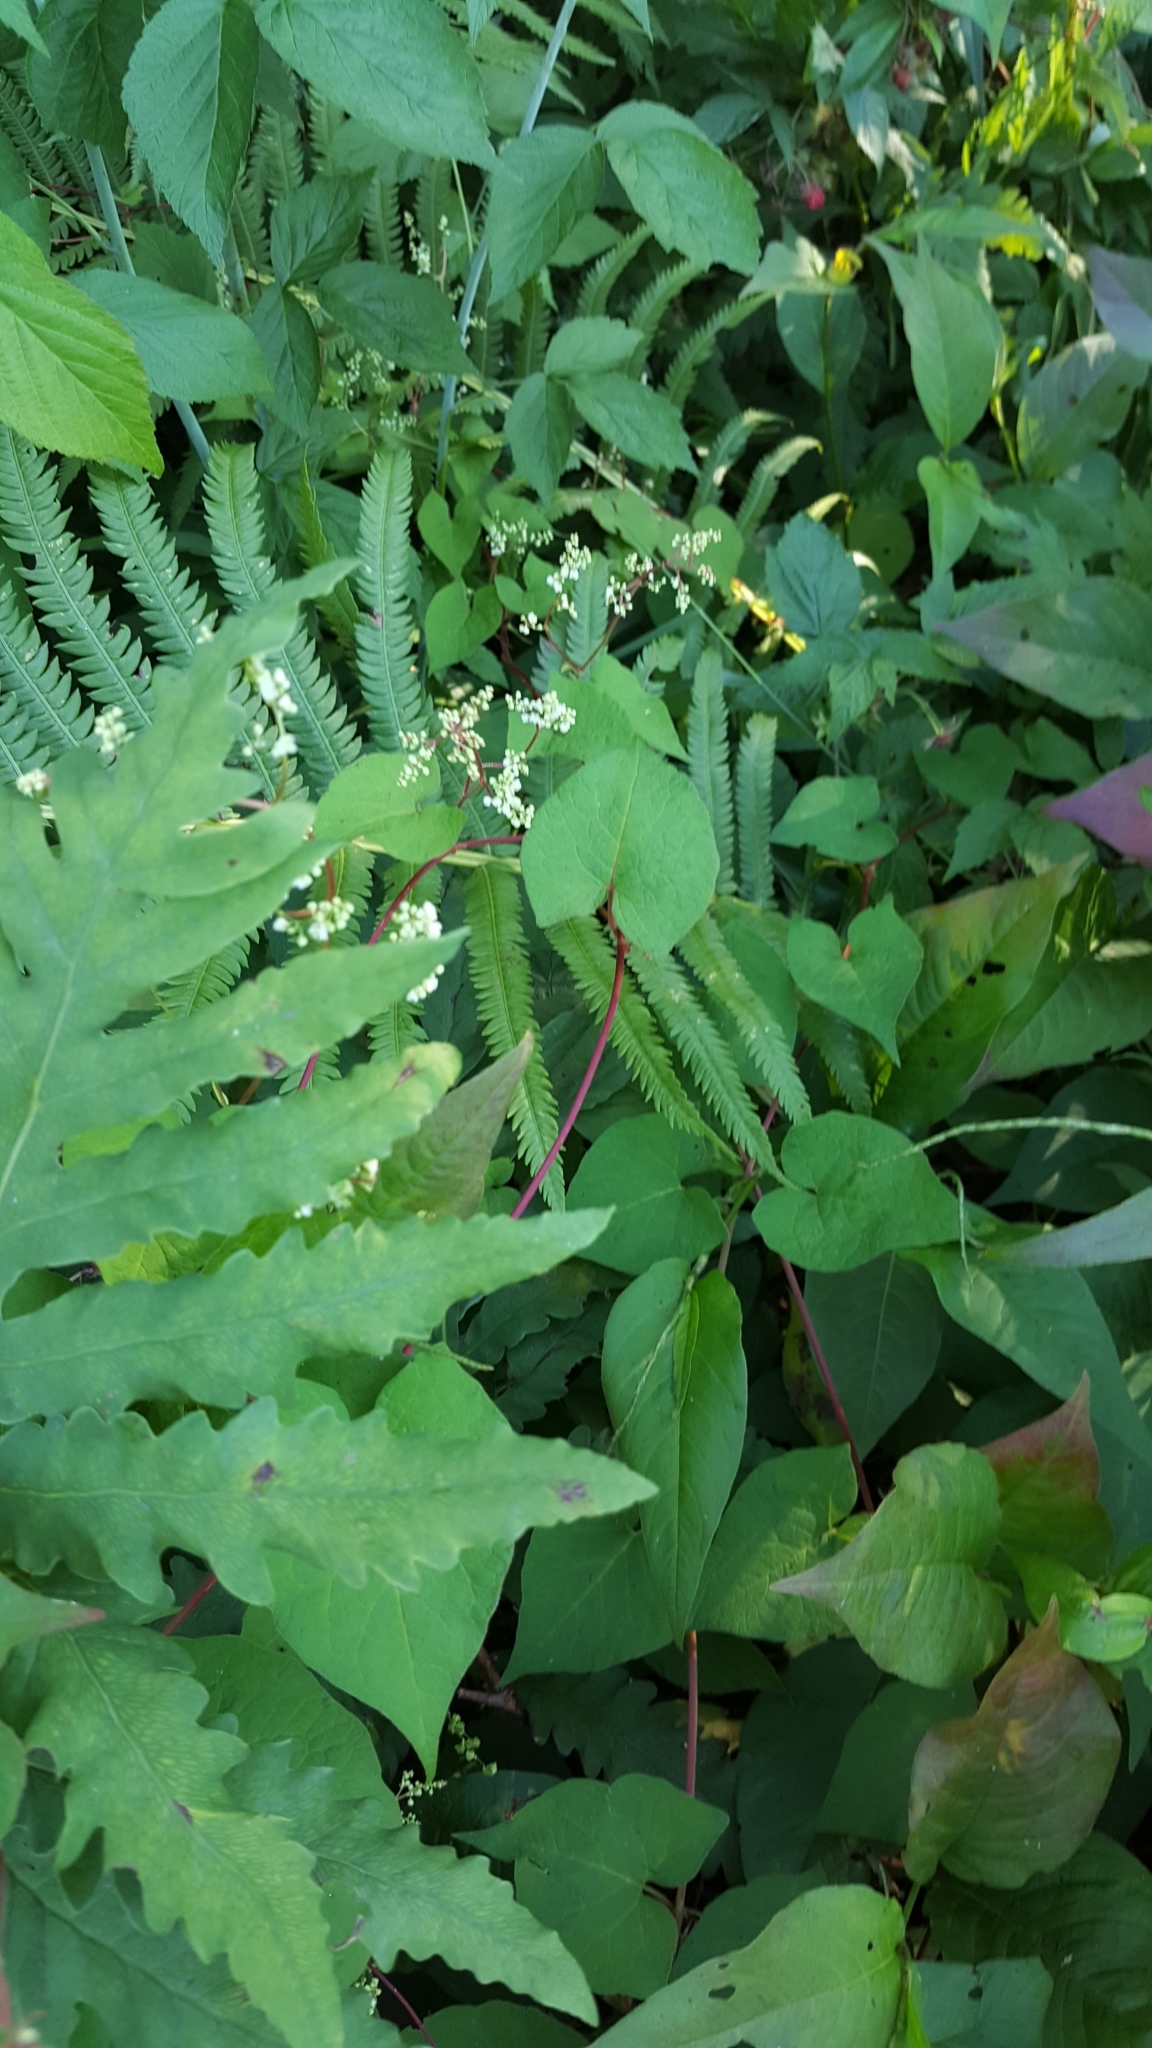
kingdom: Plantae
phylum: Tracheophyta
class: Magnoliopsida
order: Caryophyllales
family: Polygonaceae
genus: Fallopia
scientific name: Fallopia scandens
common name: Climbing false buckwheat
